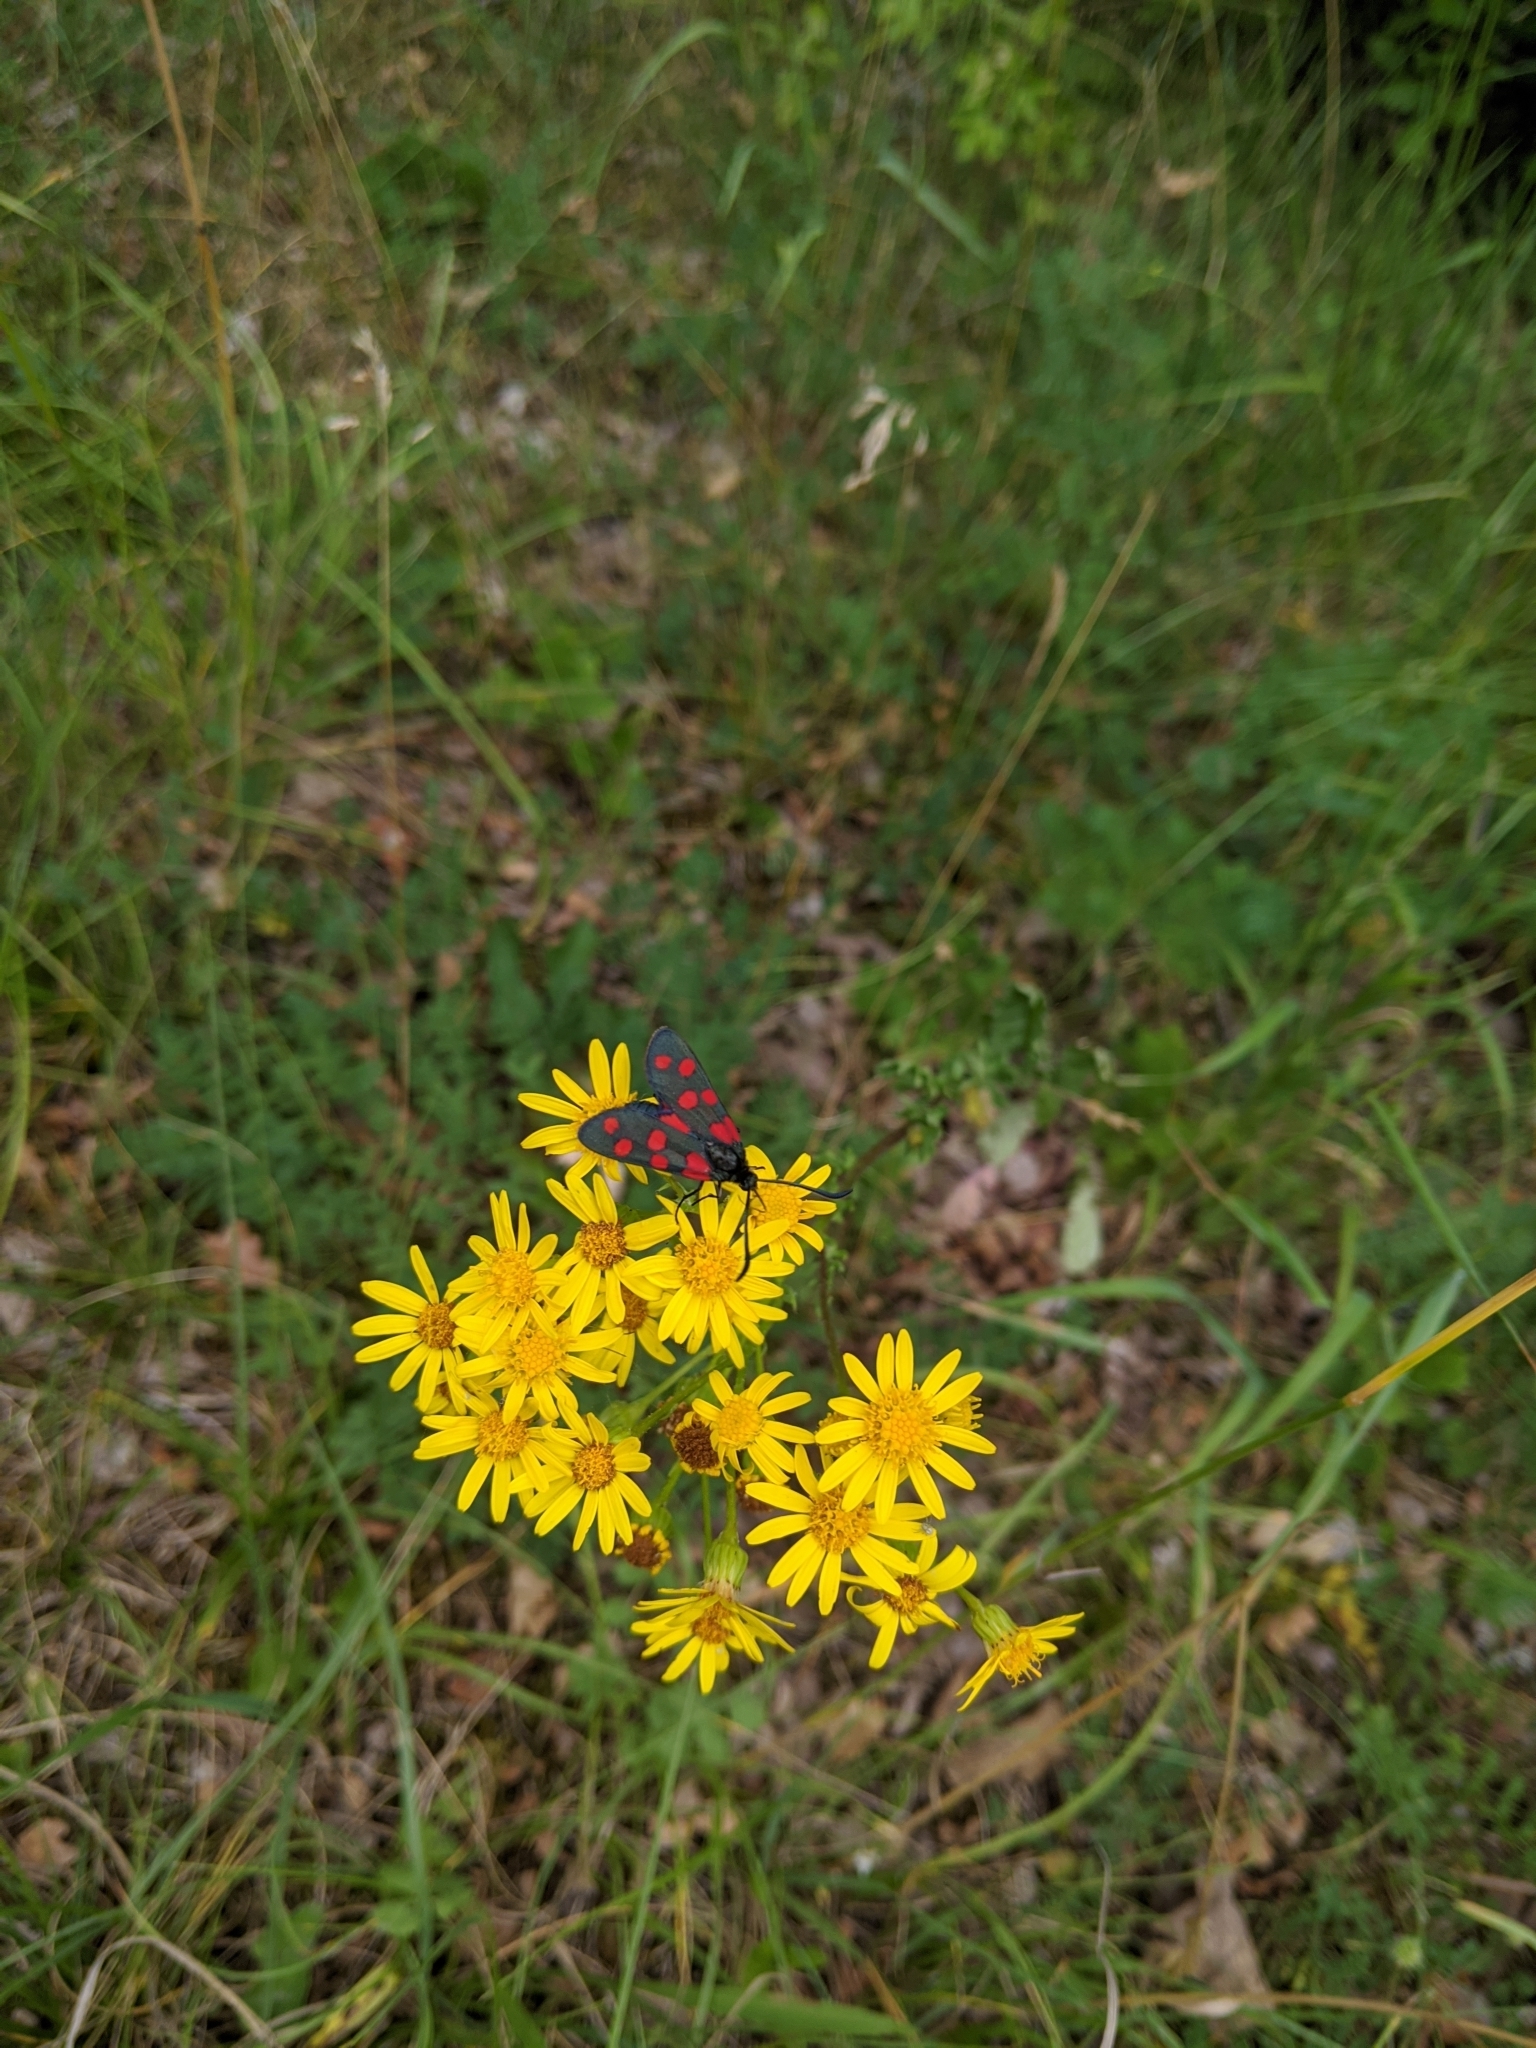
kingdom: Animalia
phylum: Arthropoda
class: Insecta
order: Lepidoptera
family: Zygaenidae
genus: Zygaena
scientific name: Zygaena filipendulae
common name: Six-spot burnet
